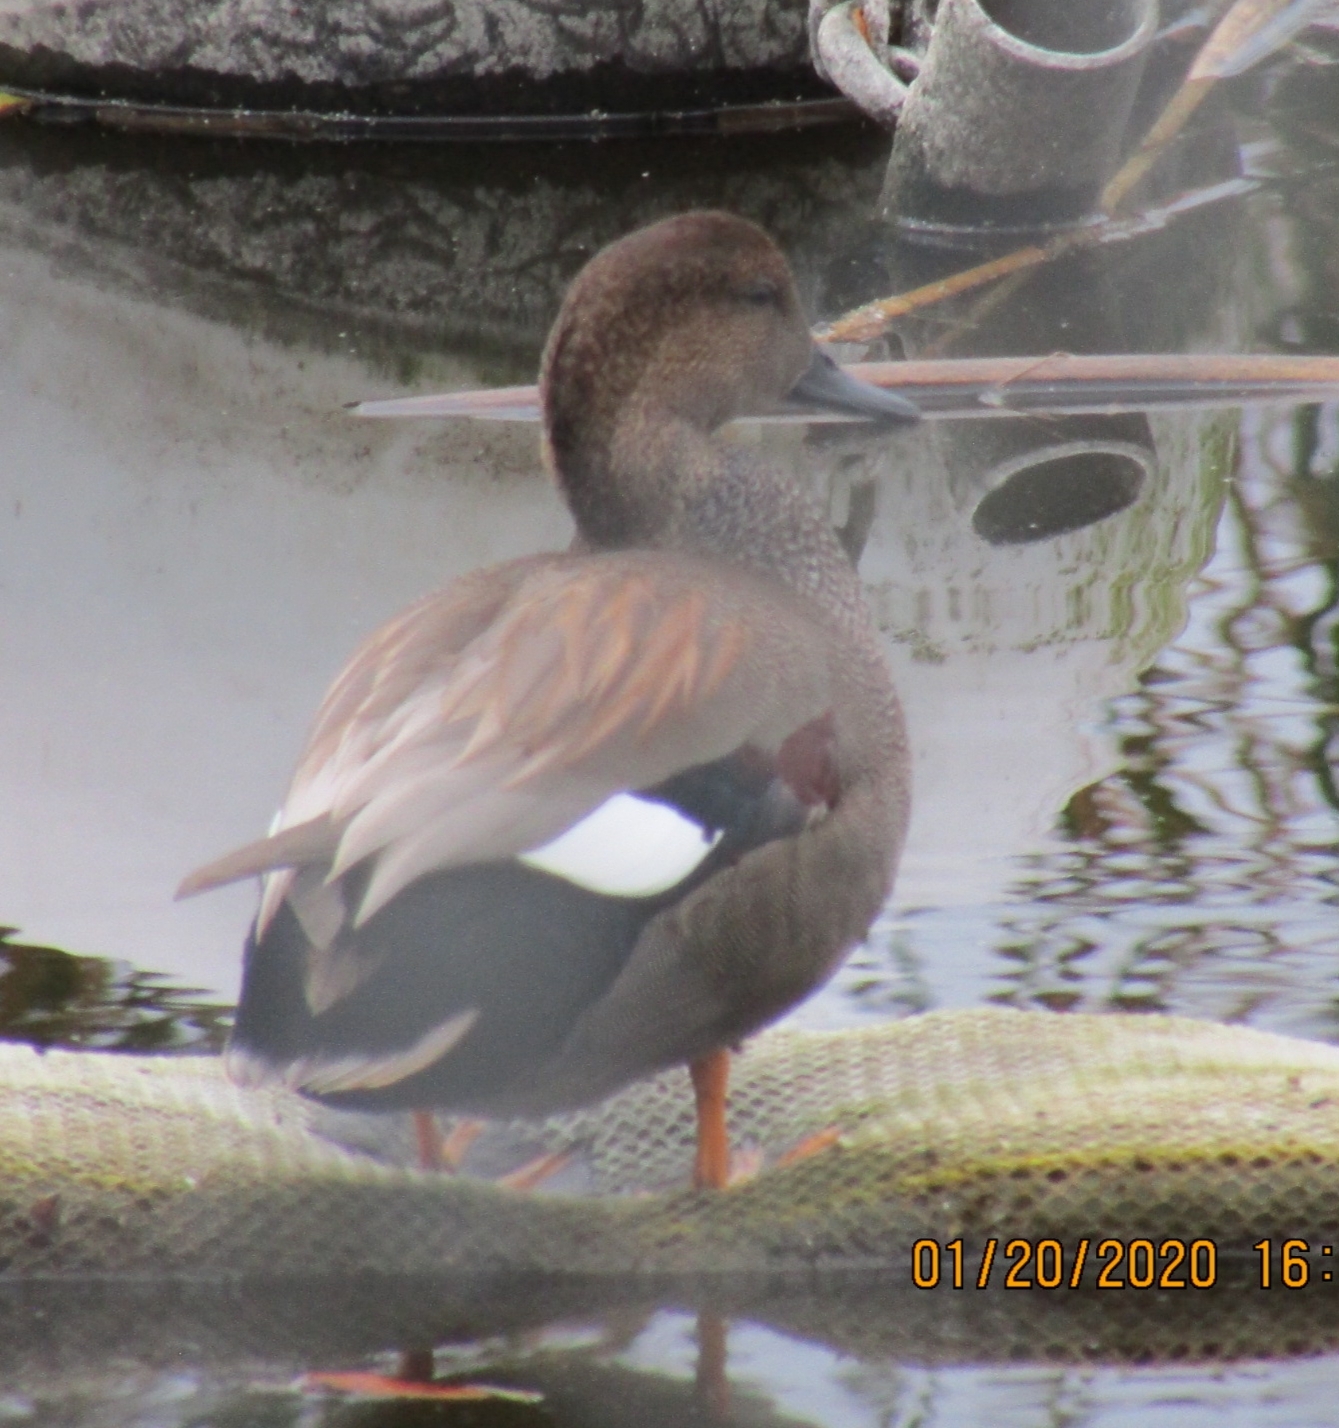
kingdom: Animalia
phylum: Chordata
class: Aves
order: Anseriformes
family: Anatidae
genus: Mareca
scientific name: Mareca strepera
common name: Gadwall
